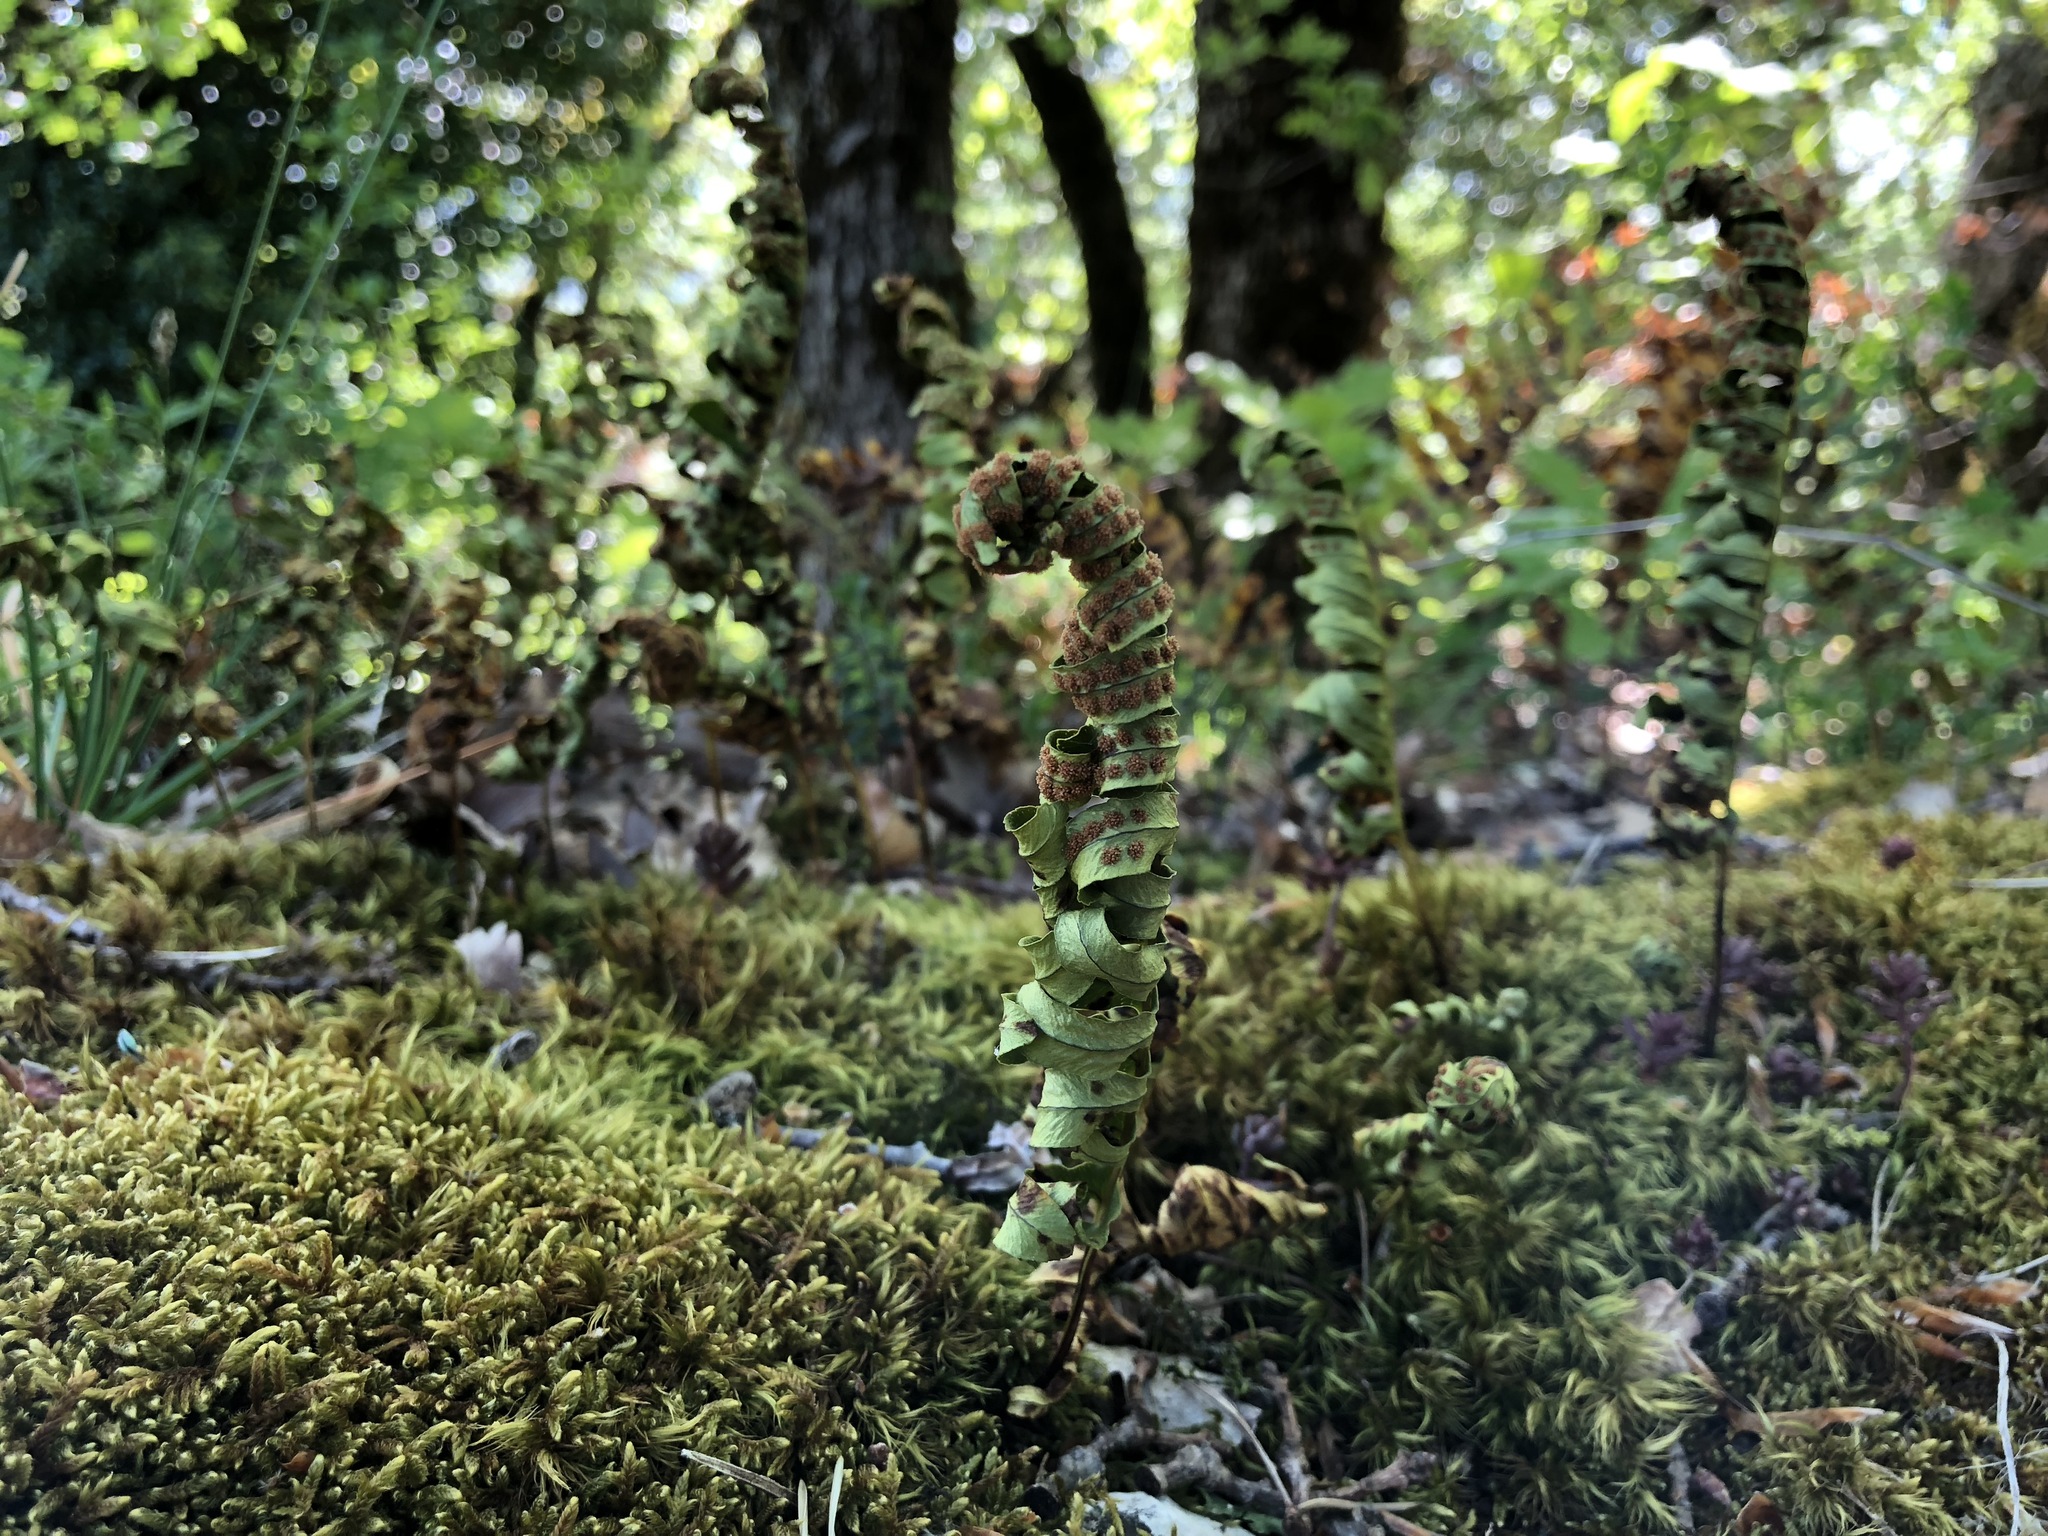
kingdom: Plantae
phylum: Tracheophyta
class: Polypodiopsida
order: Polypodiales
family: Polypodiaceae
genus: Polypodium
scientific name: Polypodium vulgare
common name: Common polypody
